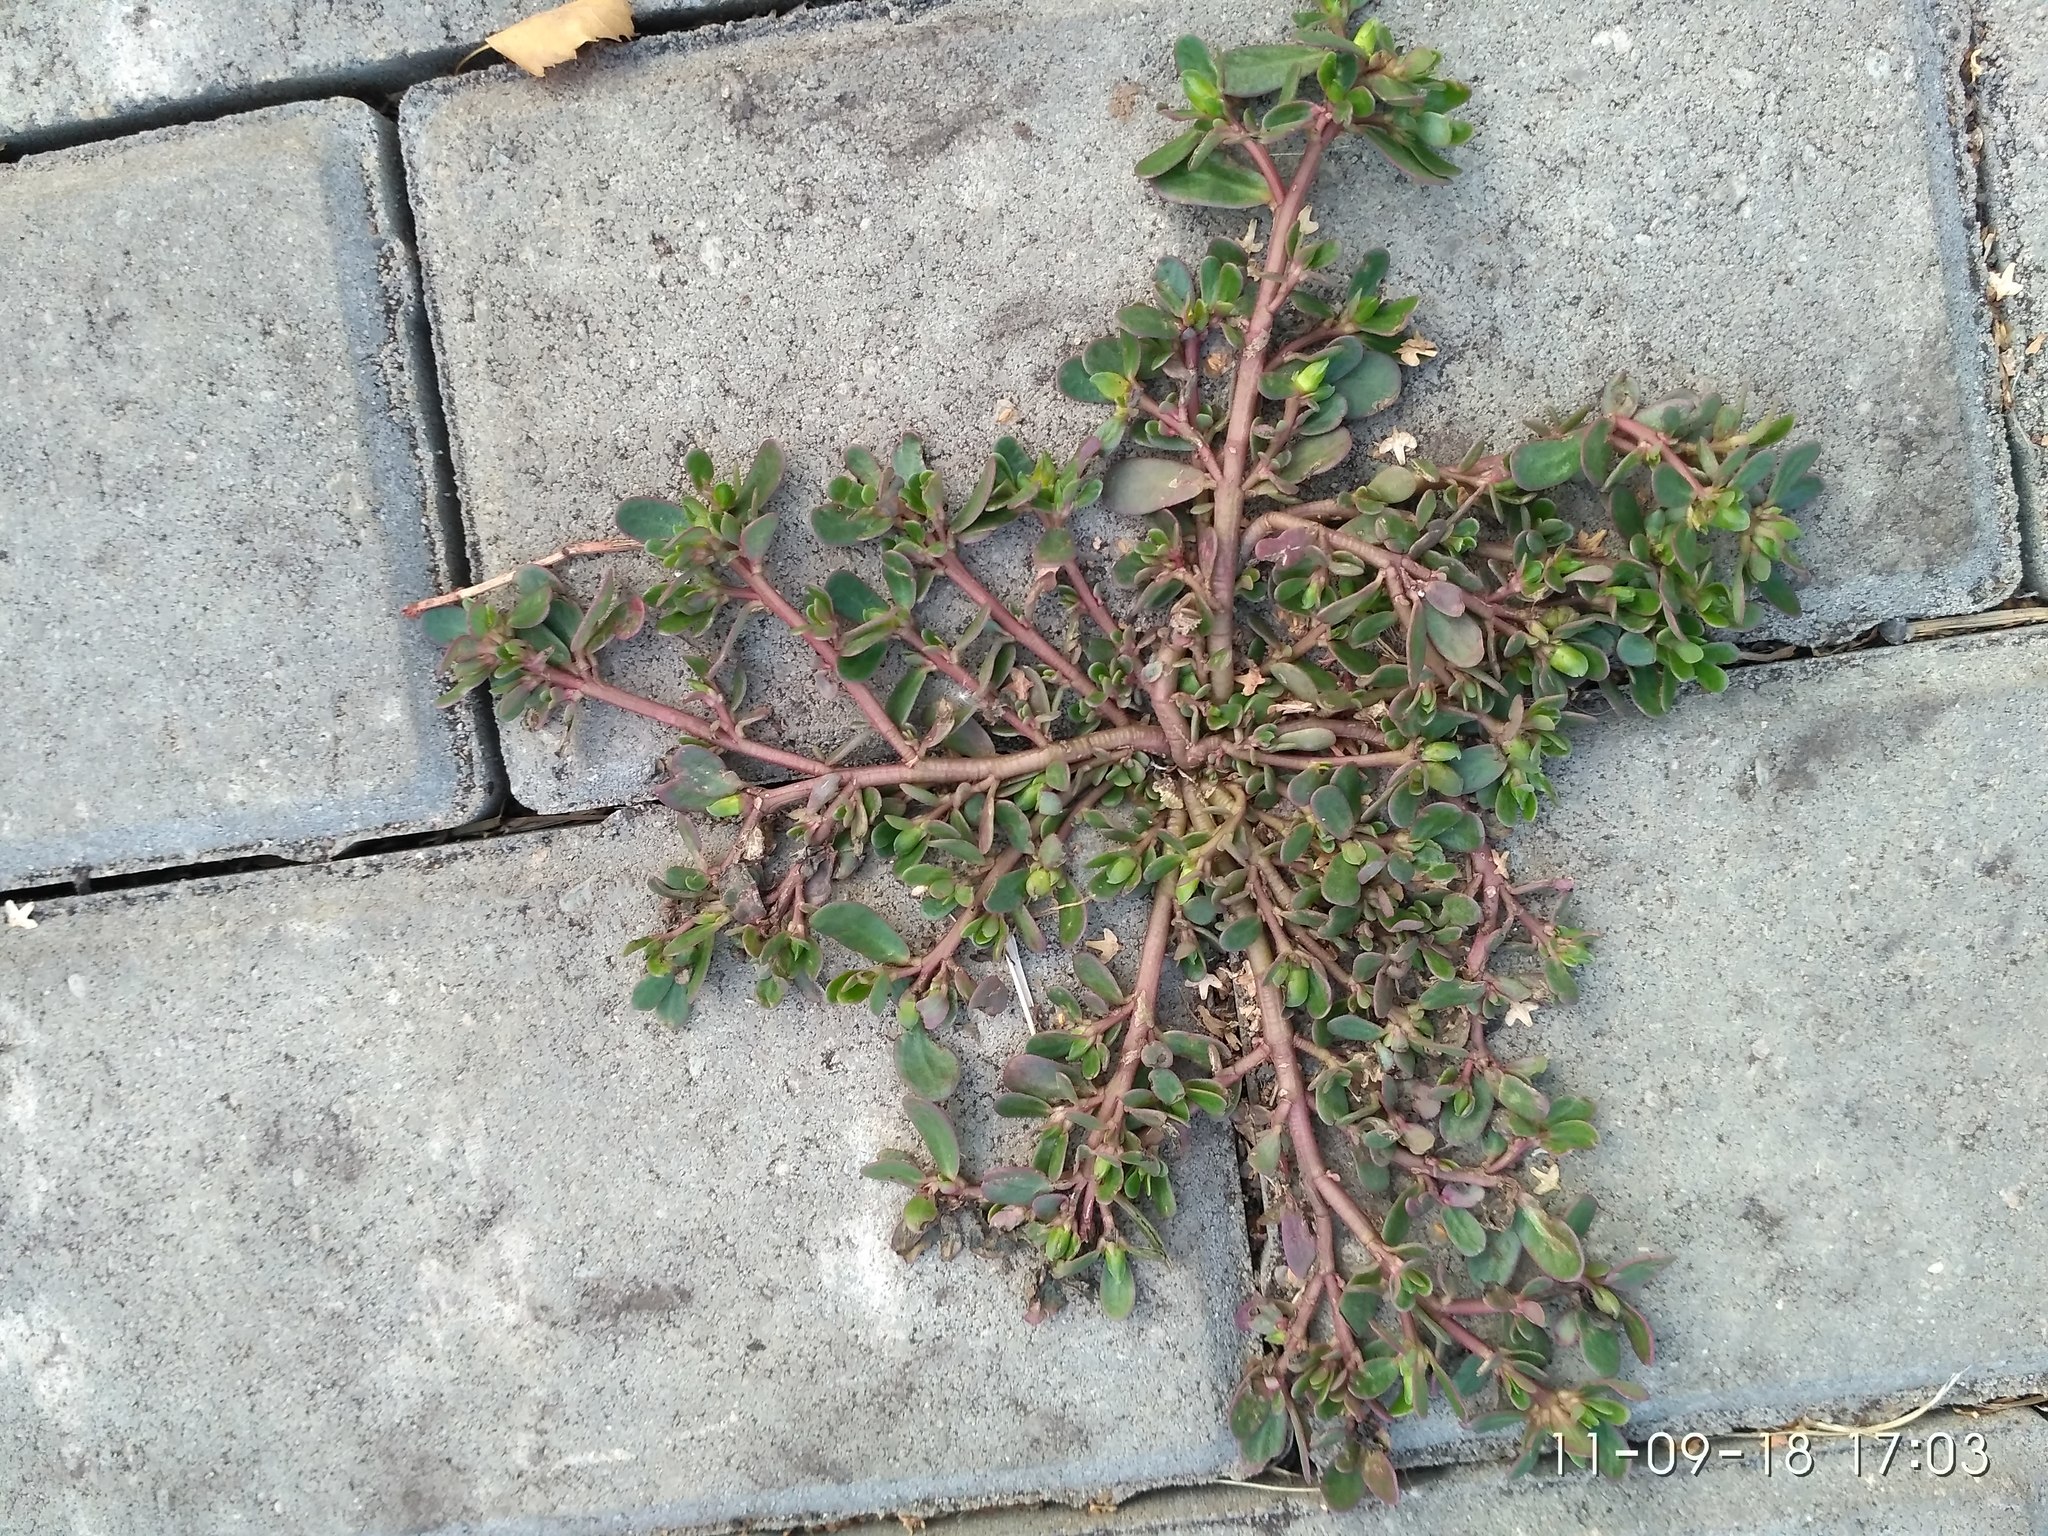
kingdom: Plantae
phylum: Tracheophyta
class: Magnoliopsida
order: Caryophyllales
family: Portulacaceae
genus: Portulaca
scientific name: Portulaca oleracea
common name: Common purslane
